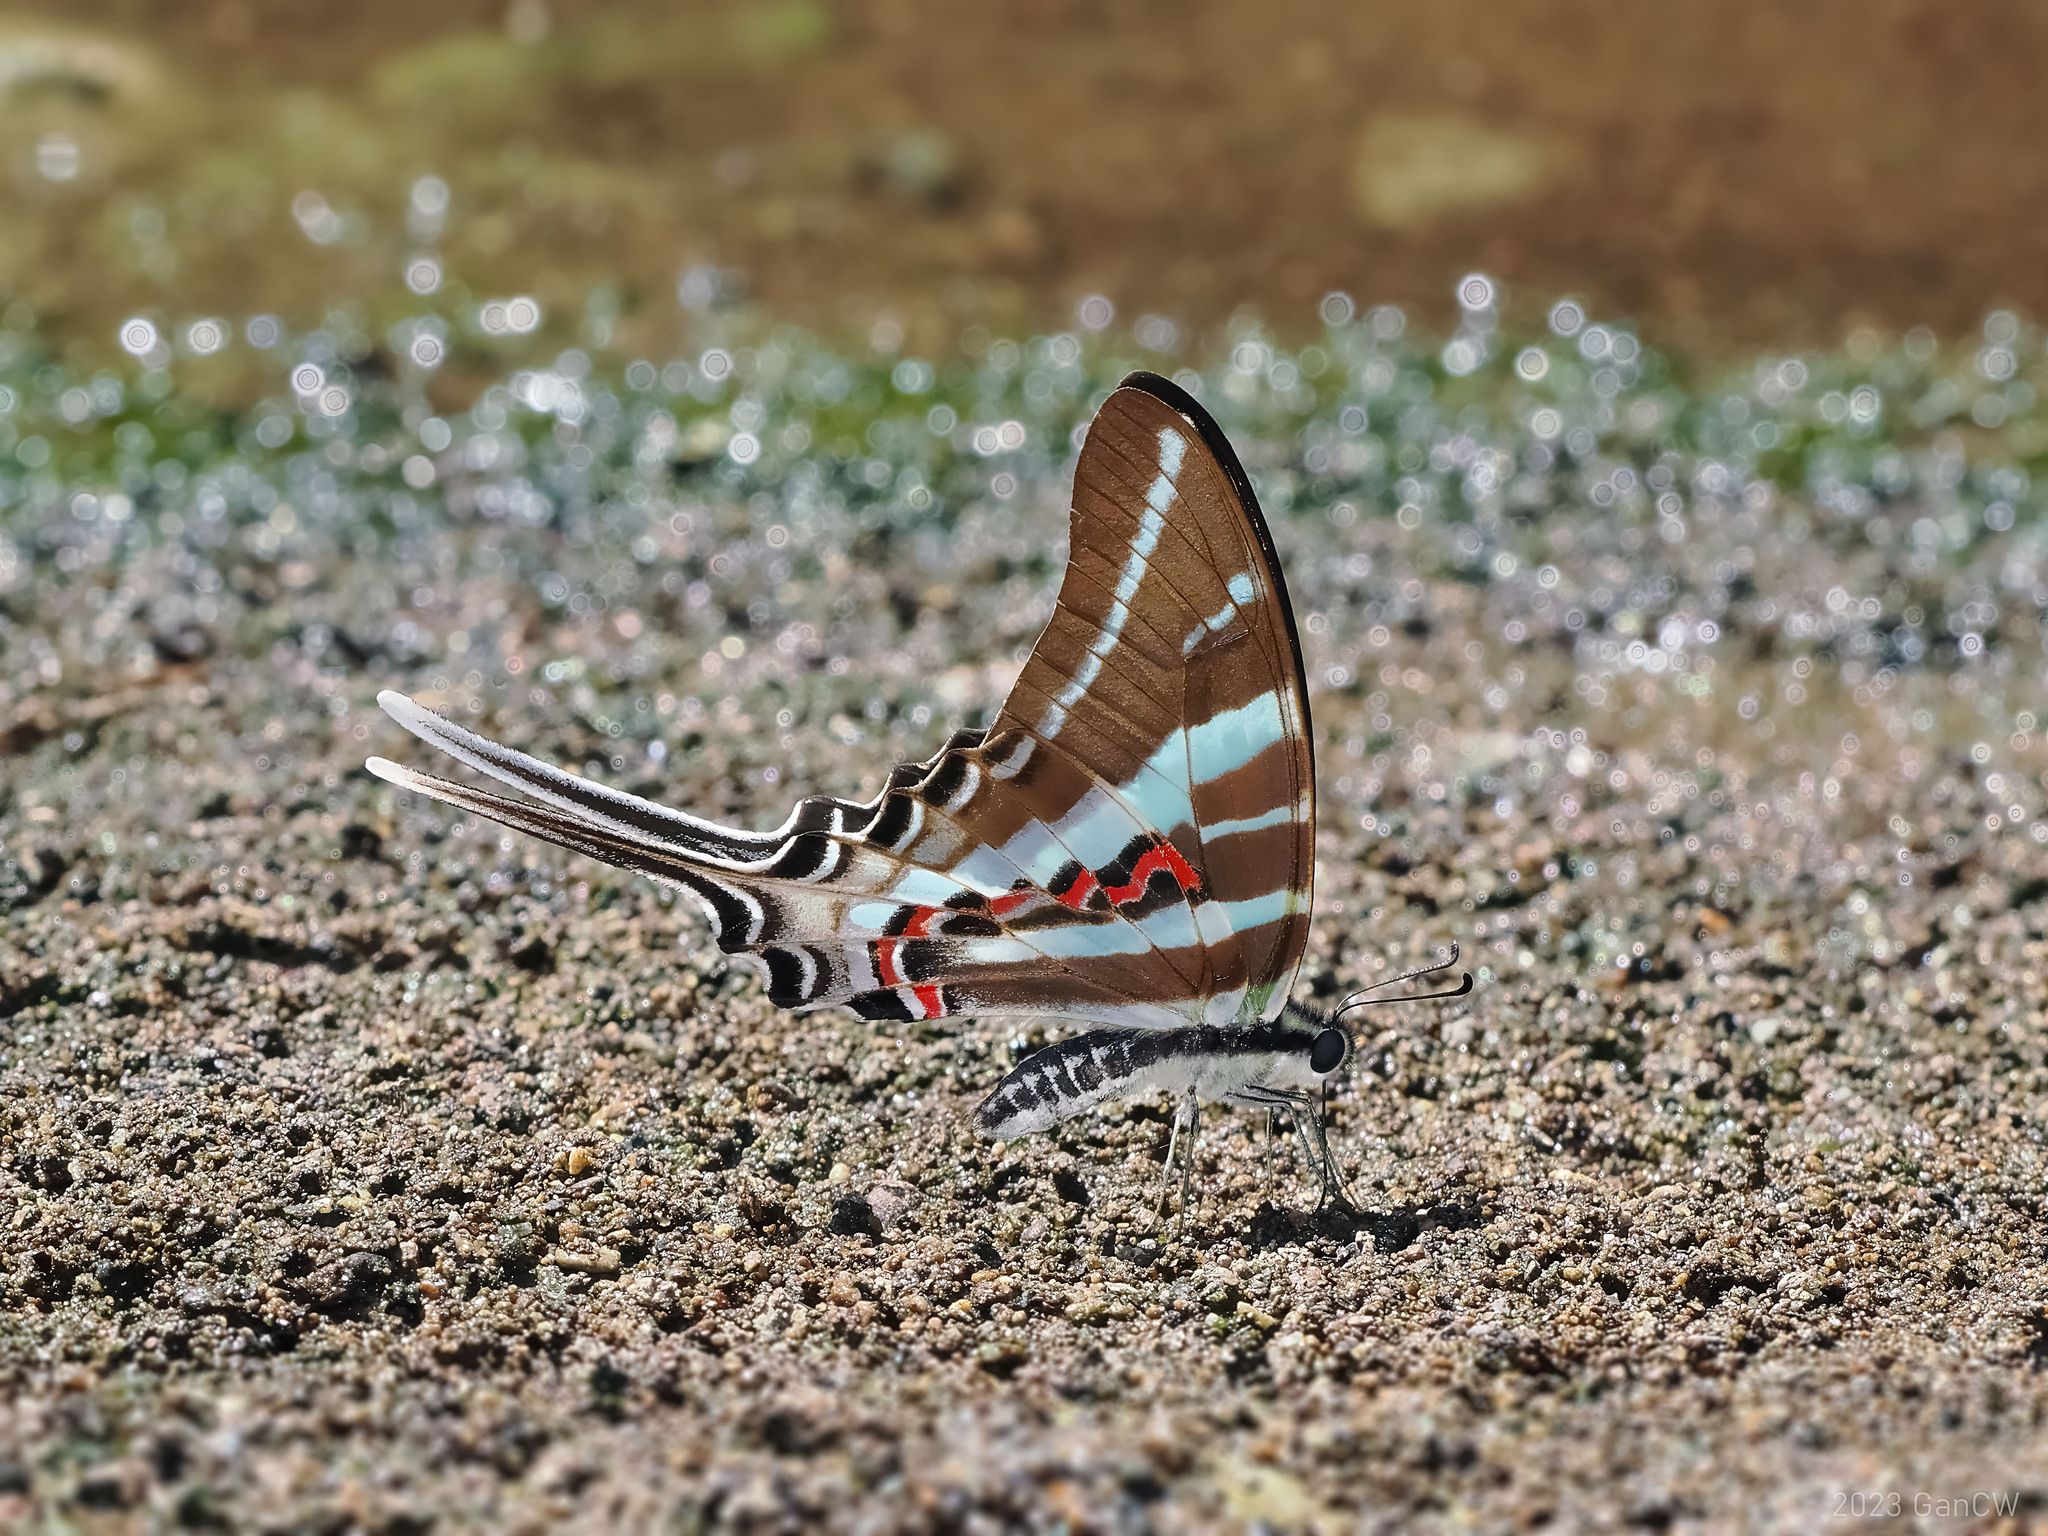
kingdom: Animalia
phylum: Arthropoda
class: Insecta
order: Lepidoptera
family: Papilionidae
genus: Graphium
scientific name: Graphium rhesus
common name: Monkey swordtail
